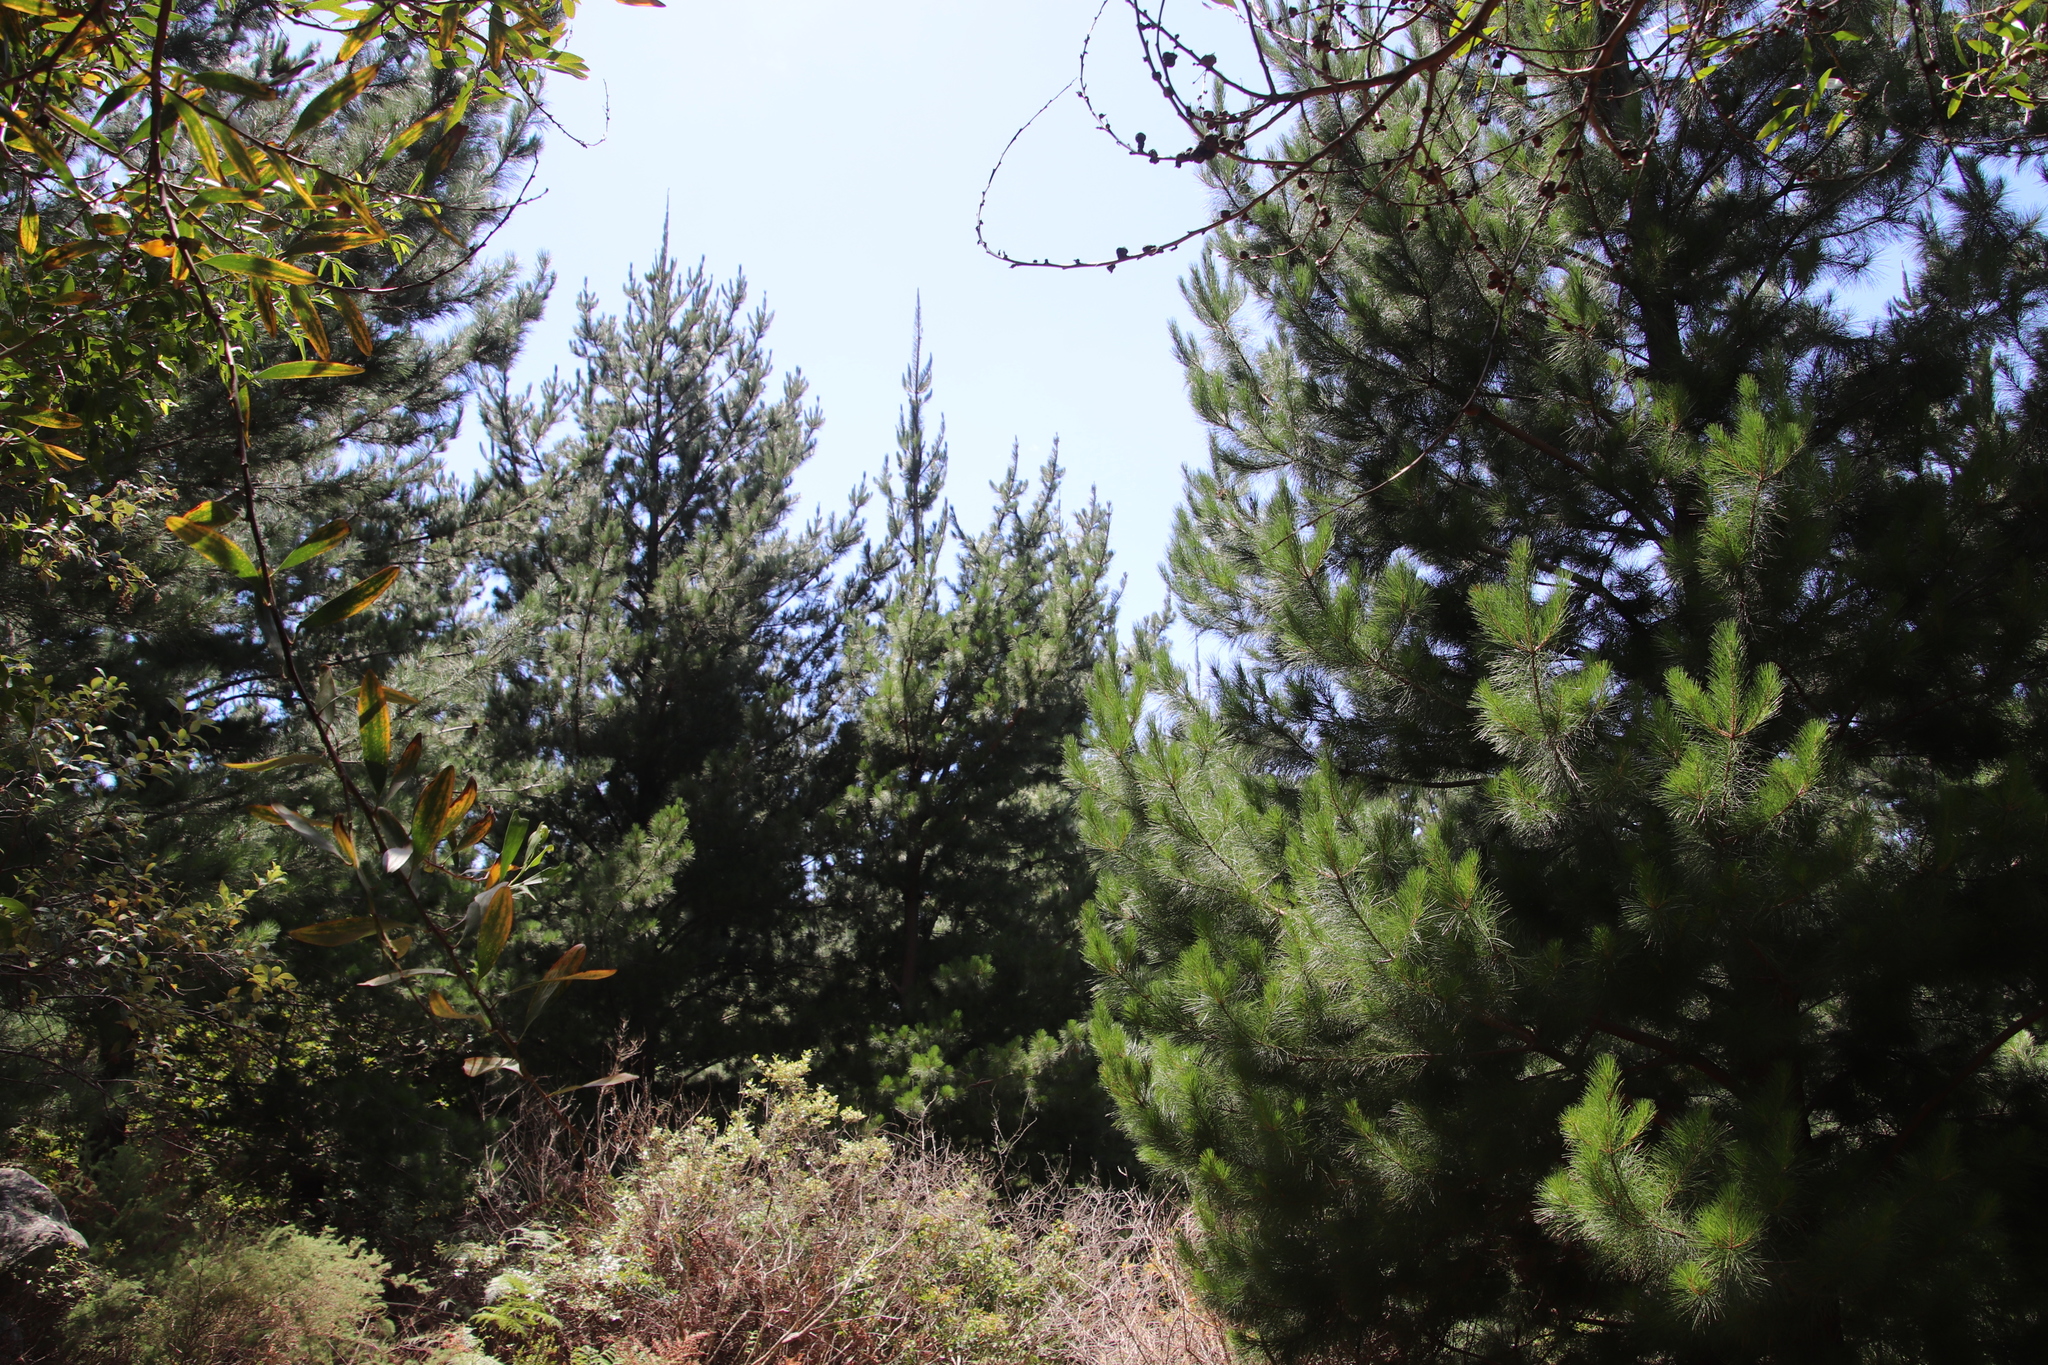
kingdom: Plantae
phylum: Tracheophyta
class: Pinopsida
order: Pinales
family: Pinaceae
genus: Pinus
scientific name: Pinus radiata
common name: Monterey pine
